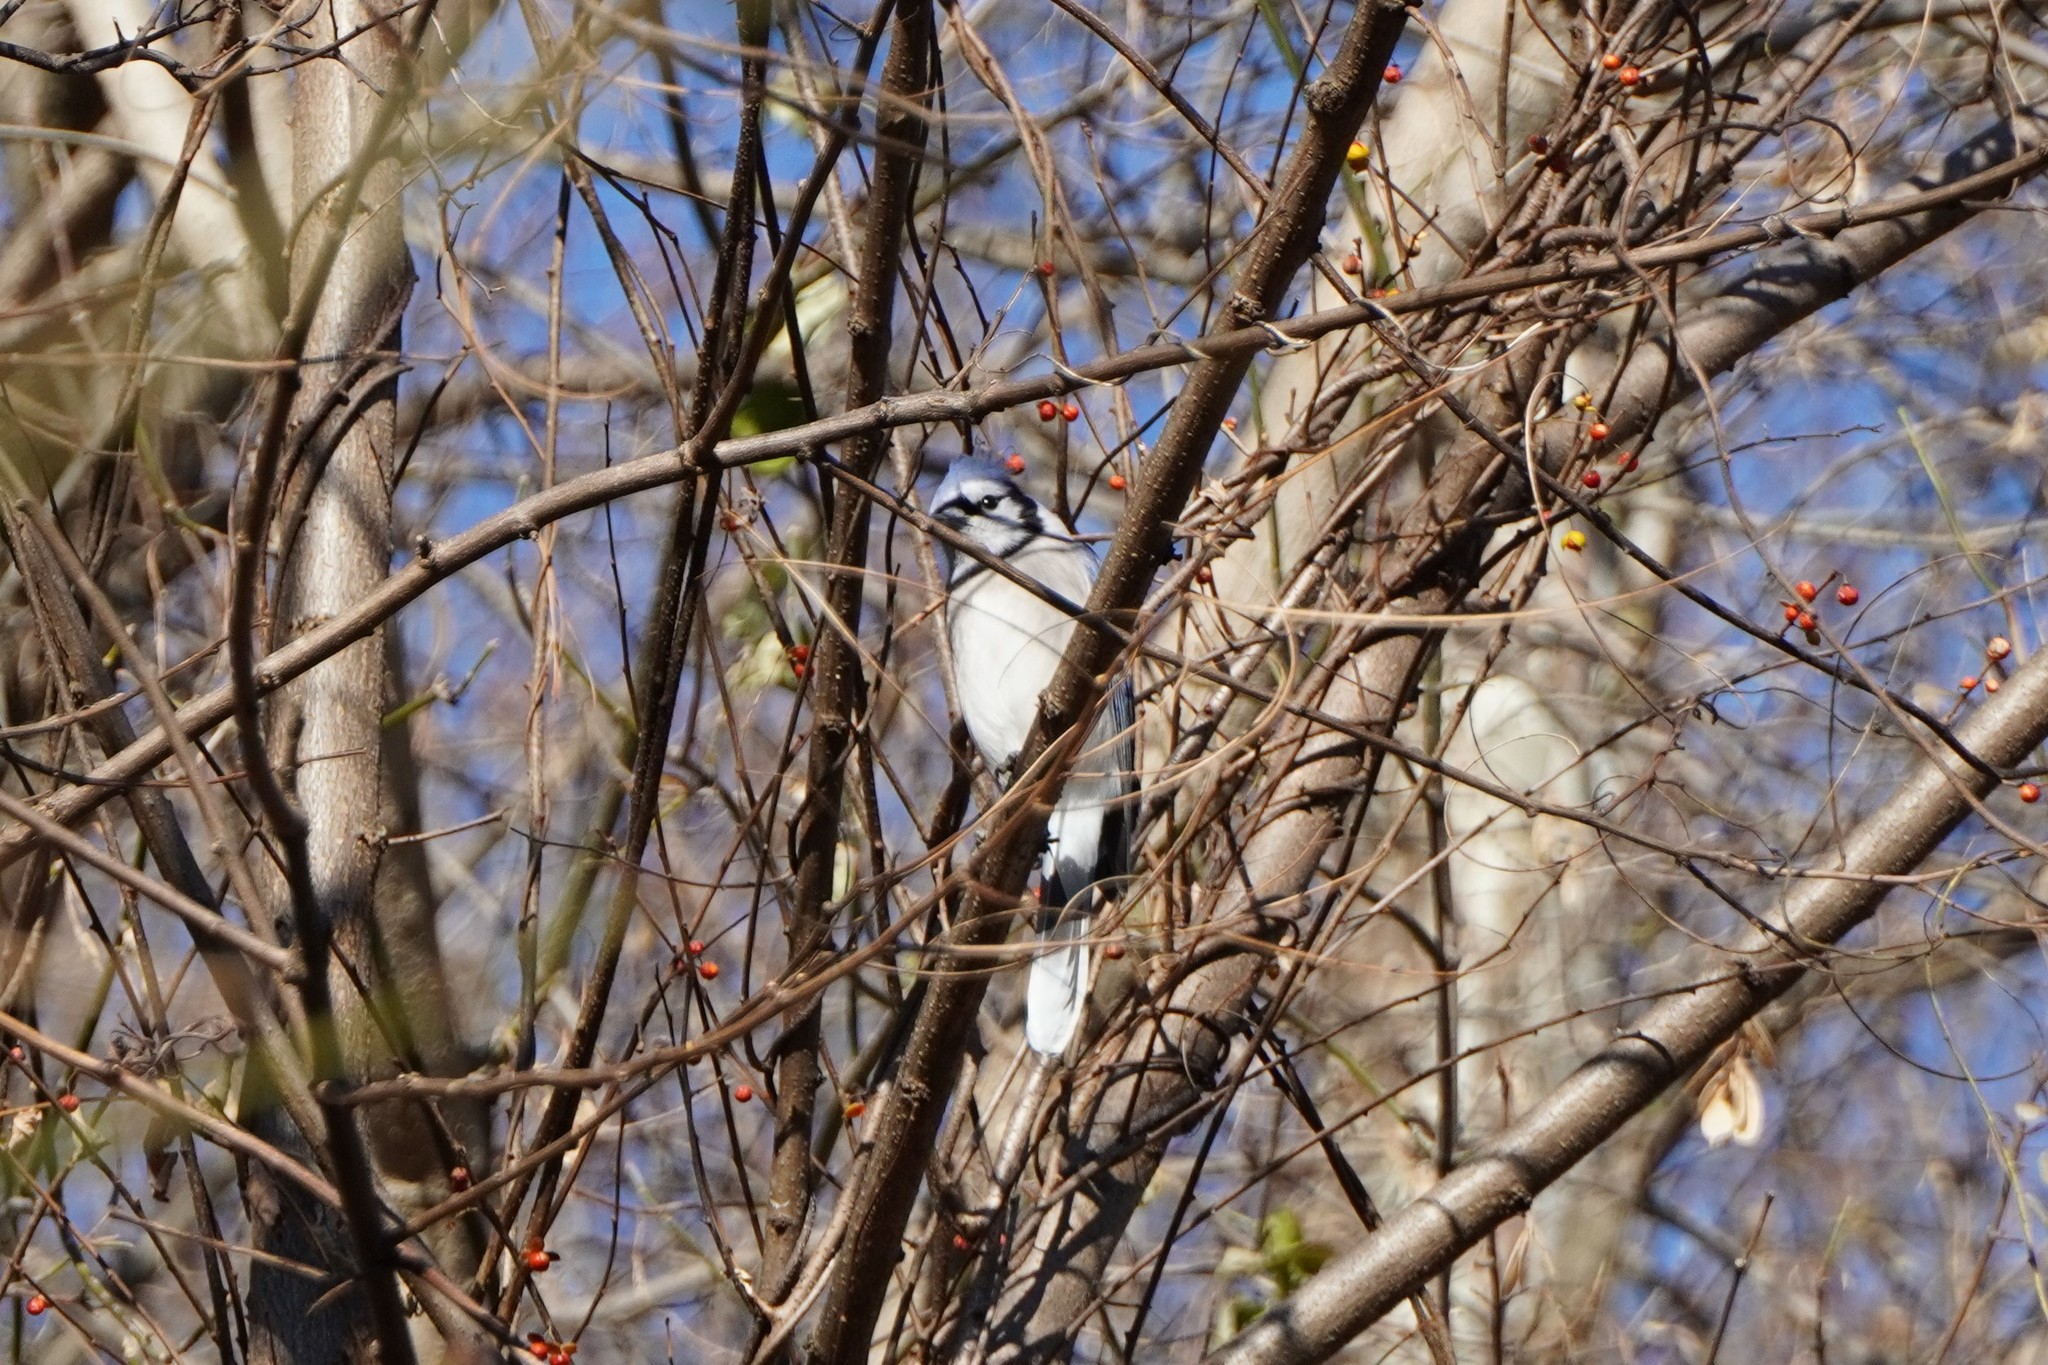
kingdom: Animalia
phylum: Chordata
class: Aves
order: Passeriformes
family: Corvidae
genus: Cyanocitta
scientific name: Cyanocitta cristata
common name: Blue jay
